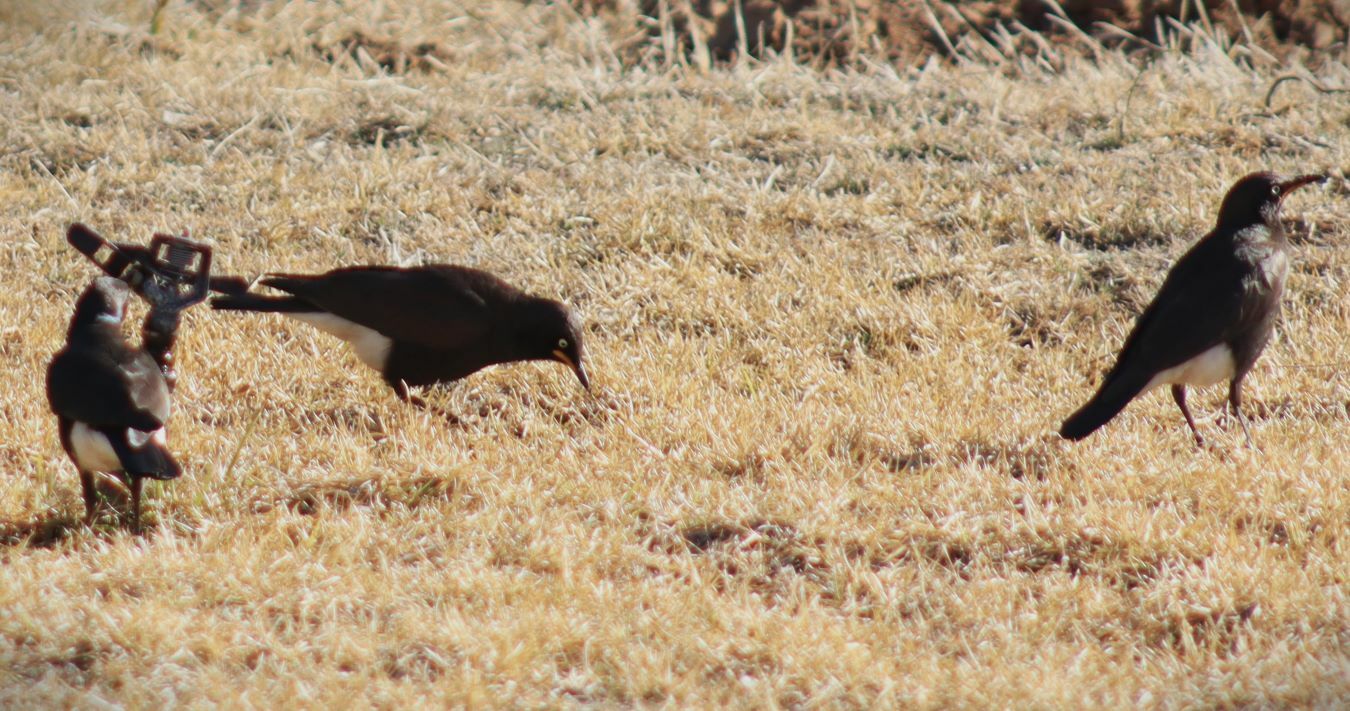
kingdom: Animalia
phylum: Chordata
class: Aves
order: Passeriformes
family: Sturnidae
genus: Lamprotornis
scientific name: Lamprotornis bicolor
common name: Pied starling
